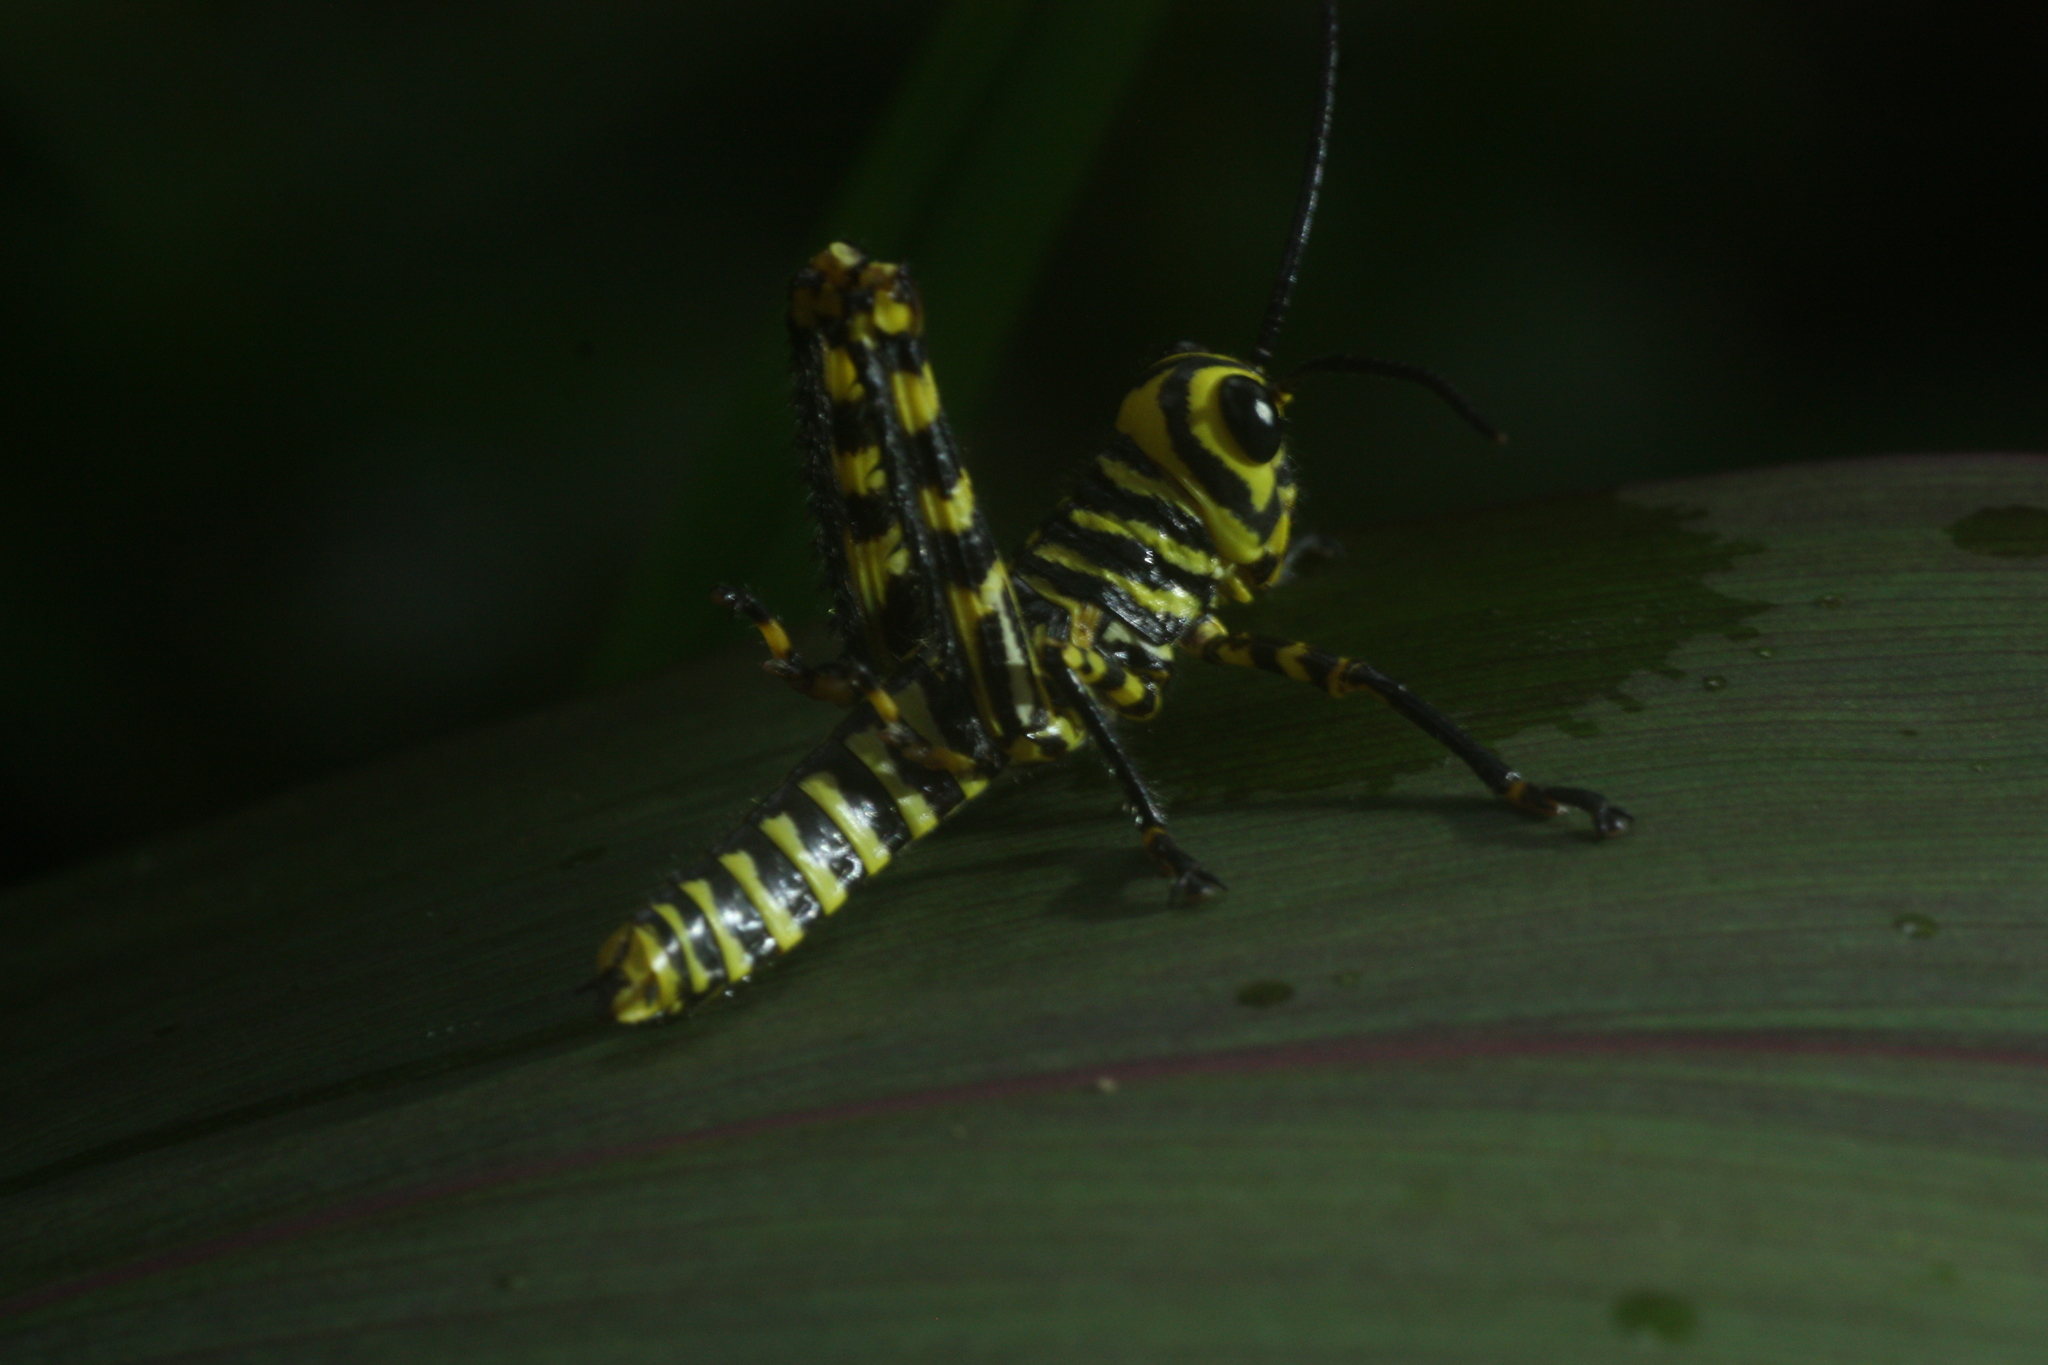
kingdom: Animalia
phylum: Arthropoda
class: Insecta
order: Orthoptera
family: Romaleidae
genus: Tropidacris
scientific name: Tropidacris cristata
